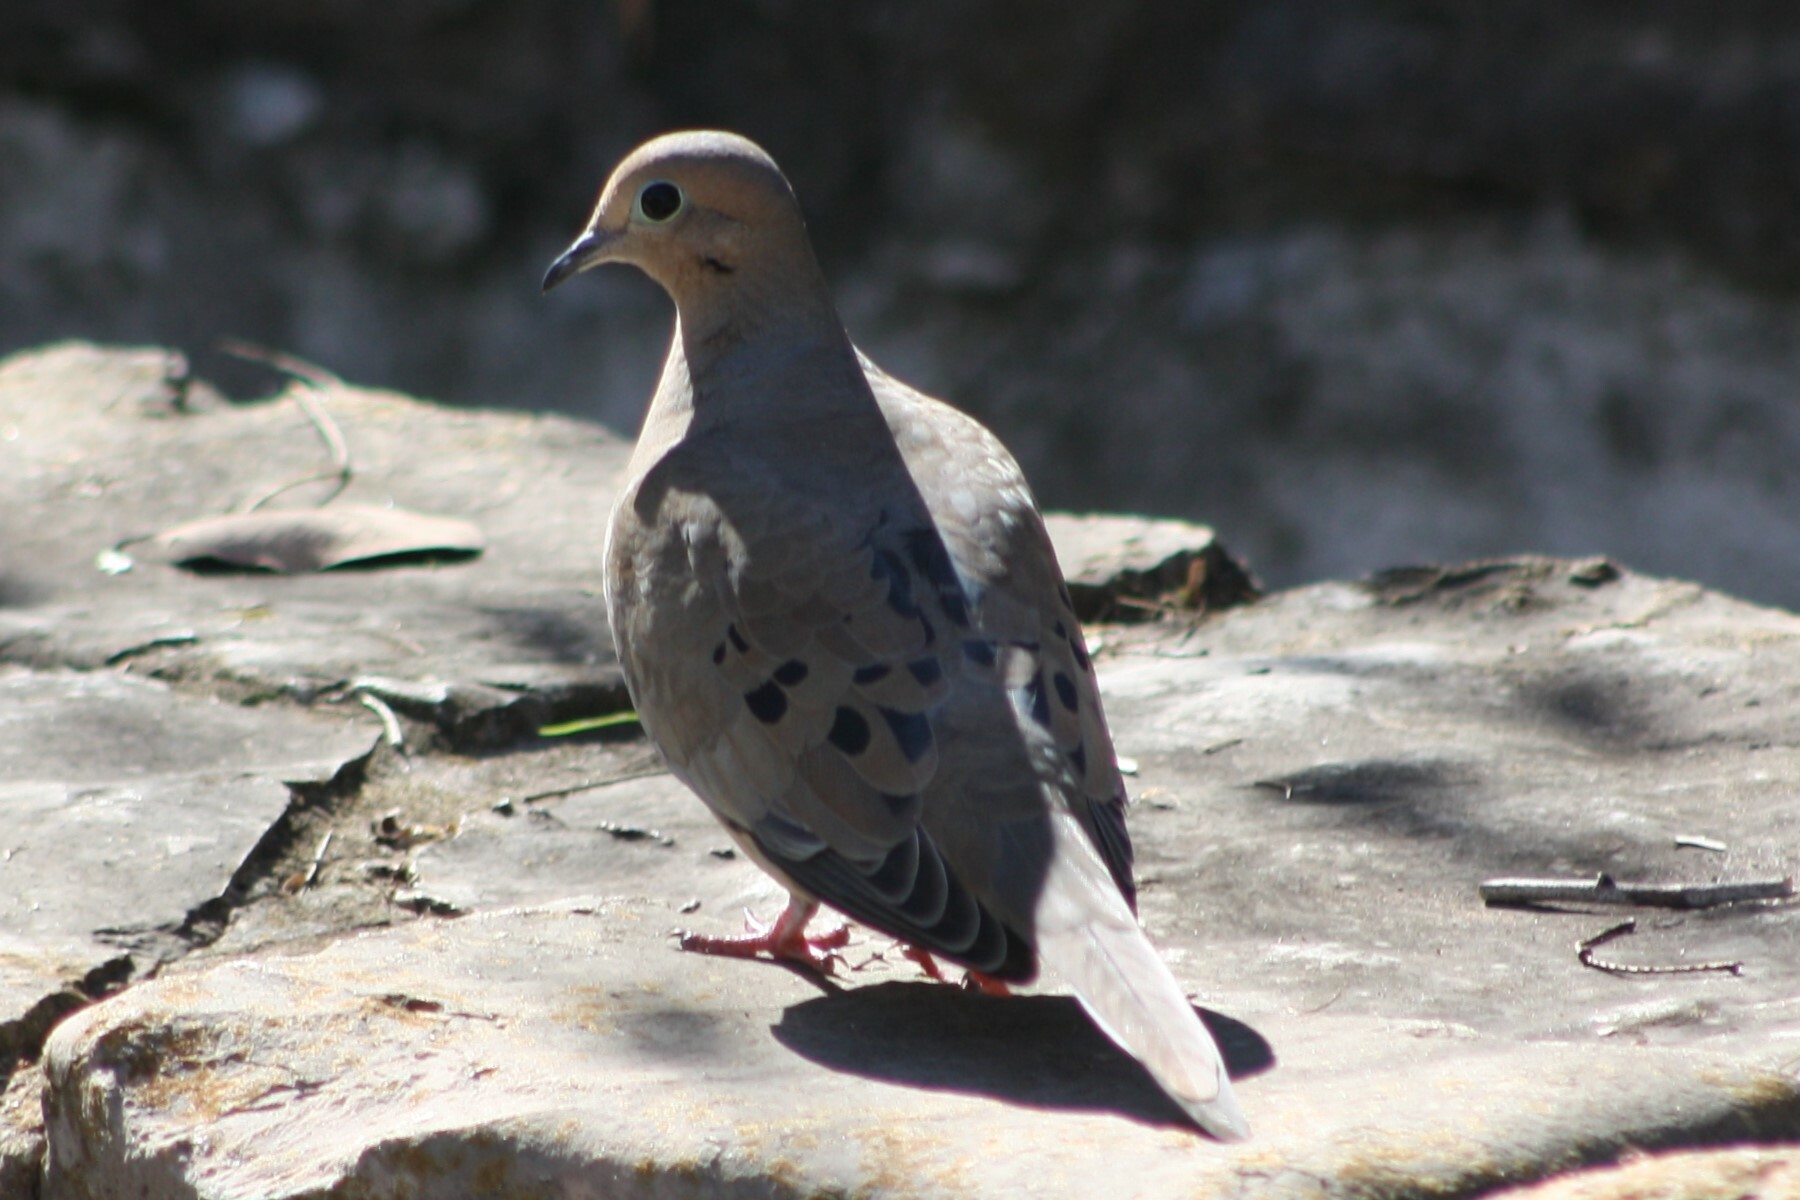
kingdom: Animalia
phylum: Chordata
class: Aves
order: Columbiformes
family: Columbidae
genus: Zenaida
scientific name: Zenaida macroura
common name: Mourning dove
